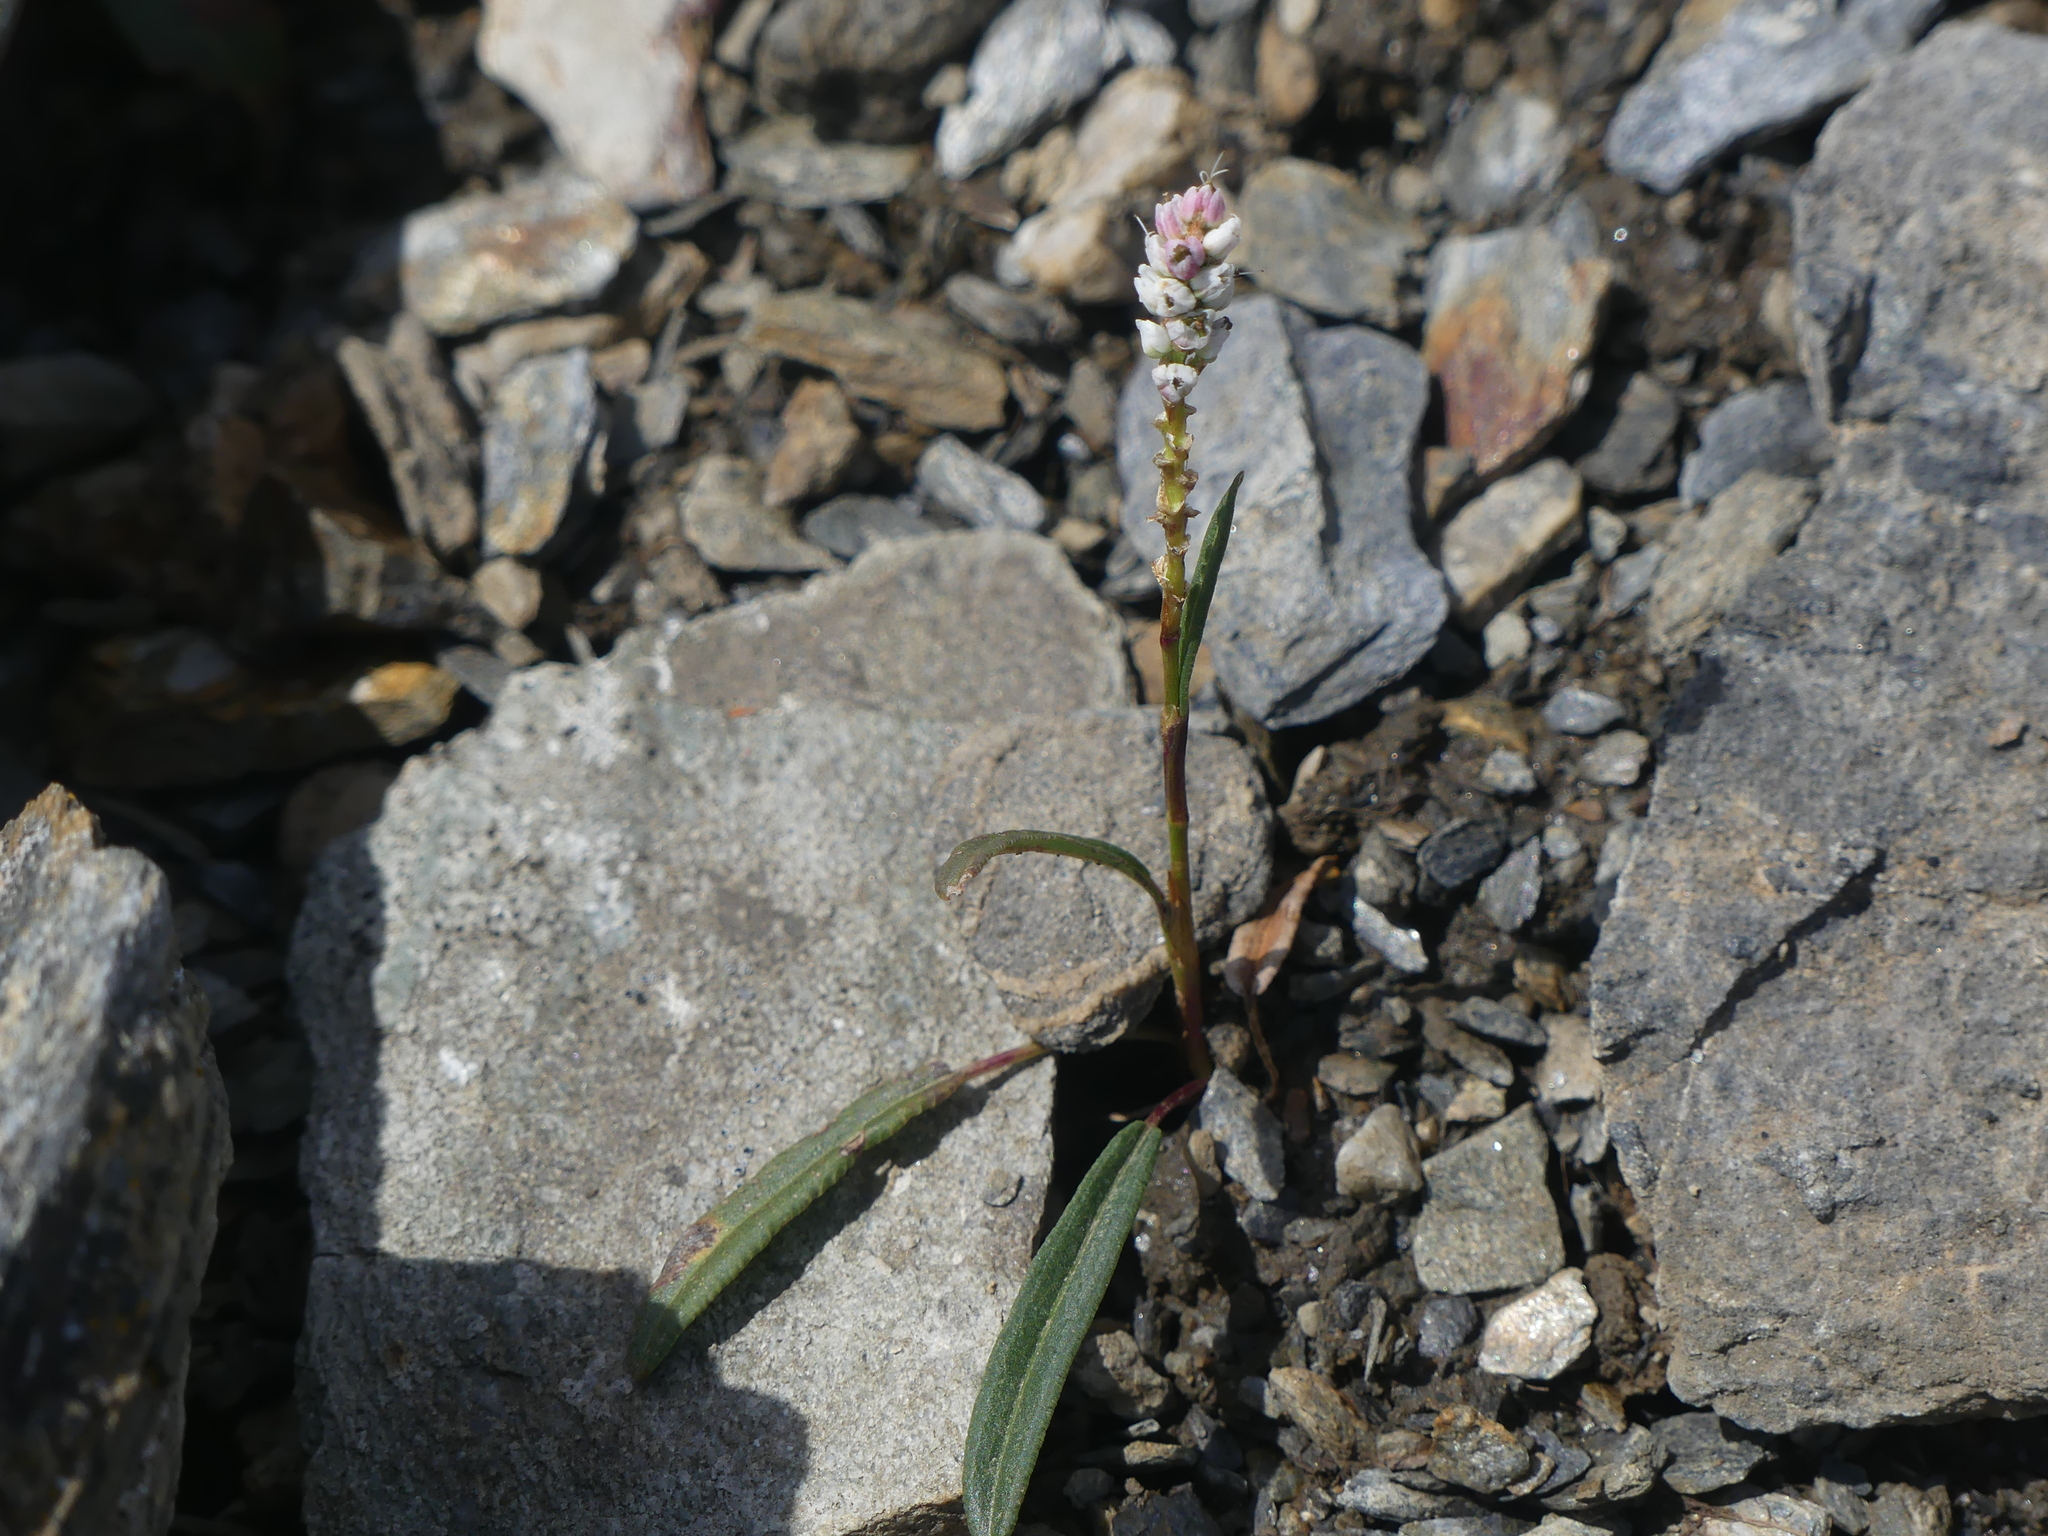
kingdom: Plantae
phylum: Tracheophyta
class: Magnoliopsida
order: Caryophyllales
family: Polygonaceae
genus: Bistorta
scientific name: Bistorta vivipara
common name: Alpine bistort
